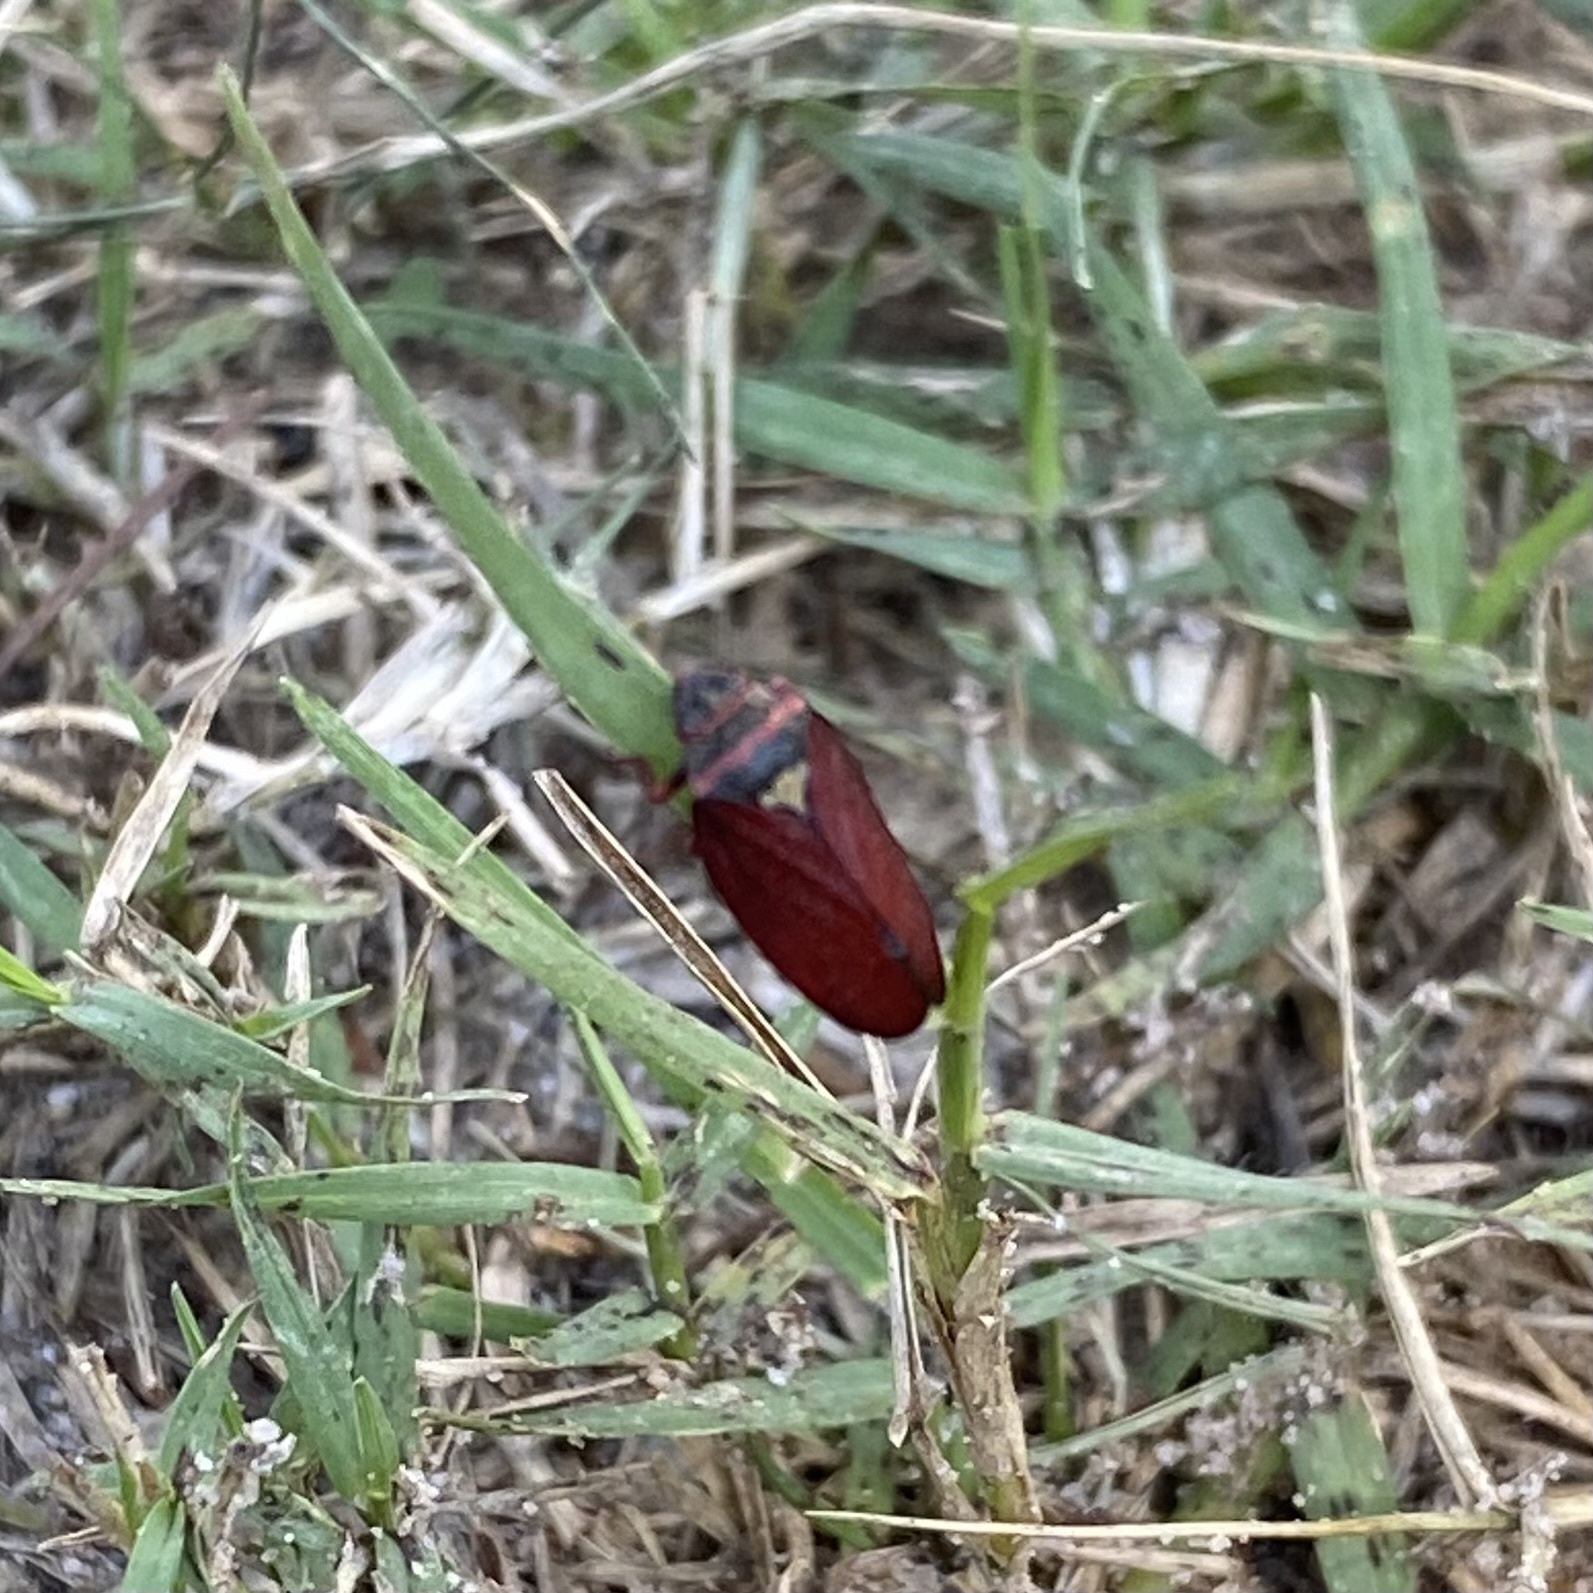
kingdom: Animalia
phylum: Arthropoda
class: Insecta
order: Hemiptera
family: Cercopidae
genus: Locris
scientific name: Locris transversa
